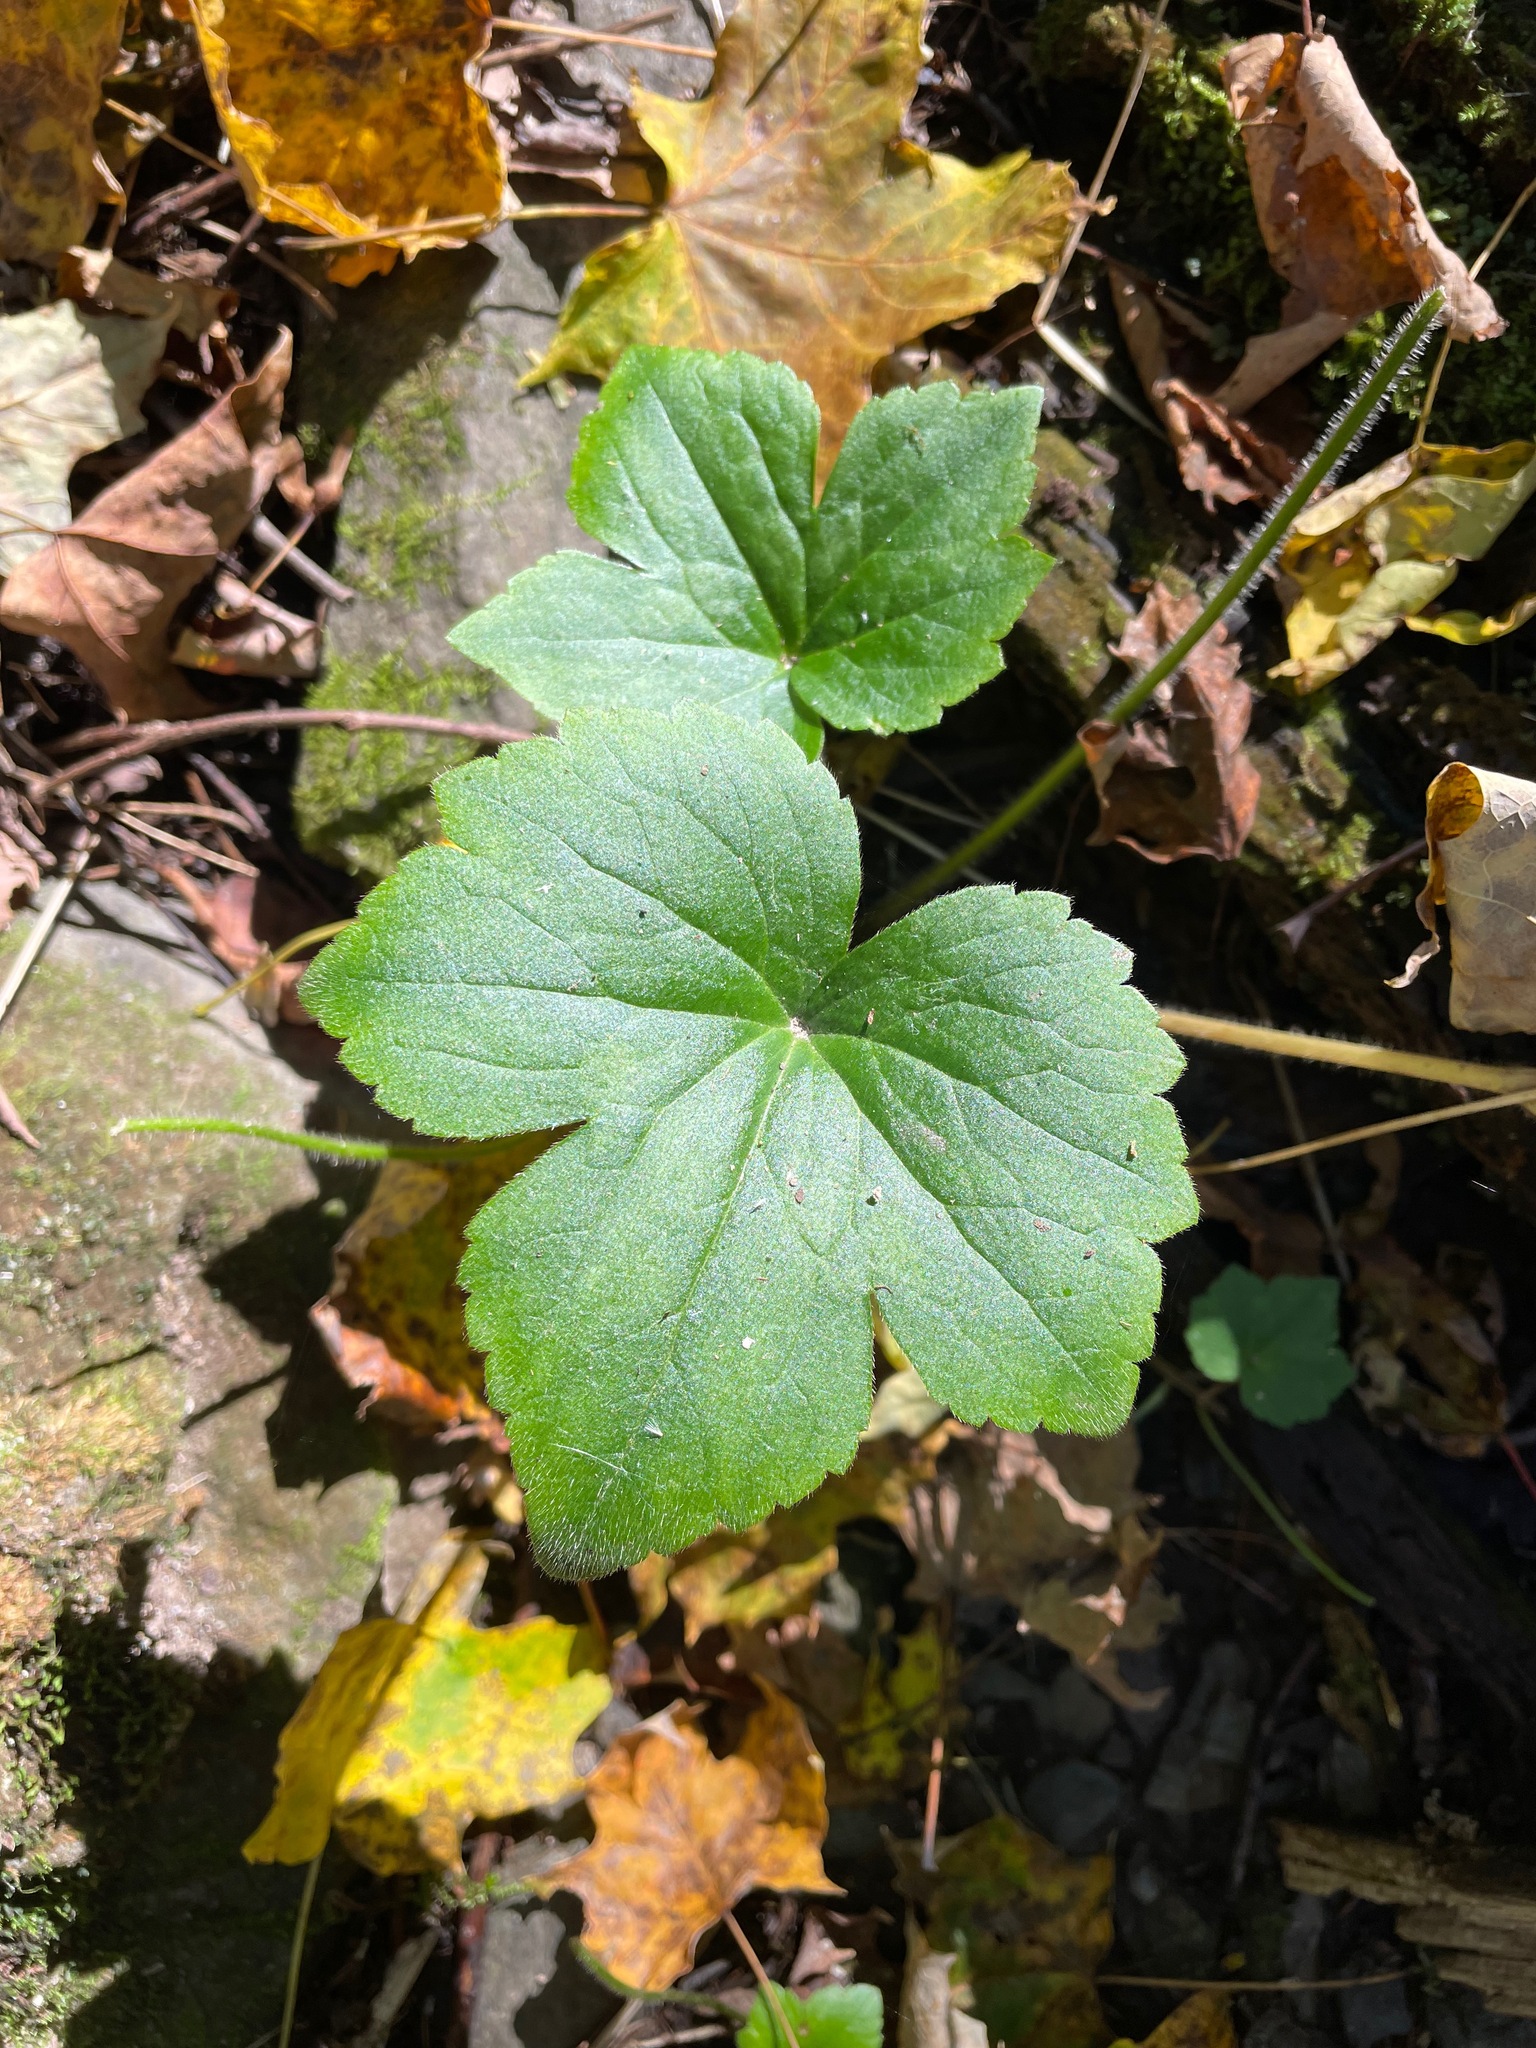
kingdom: Plantae
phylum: Tracheophyta
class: Magnoliopsida
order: Ranunculales
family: Ranunculaceae
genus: Ranunculus
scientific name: Ranunculus recurvatus
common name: Blisterwort
